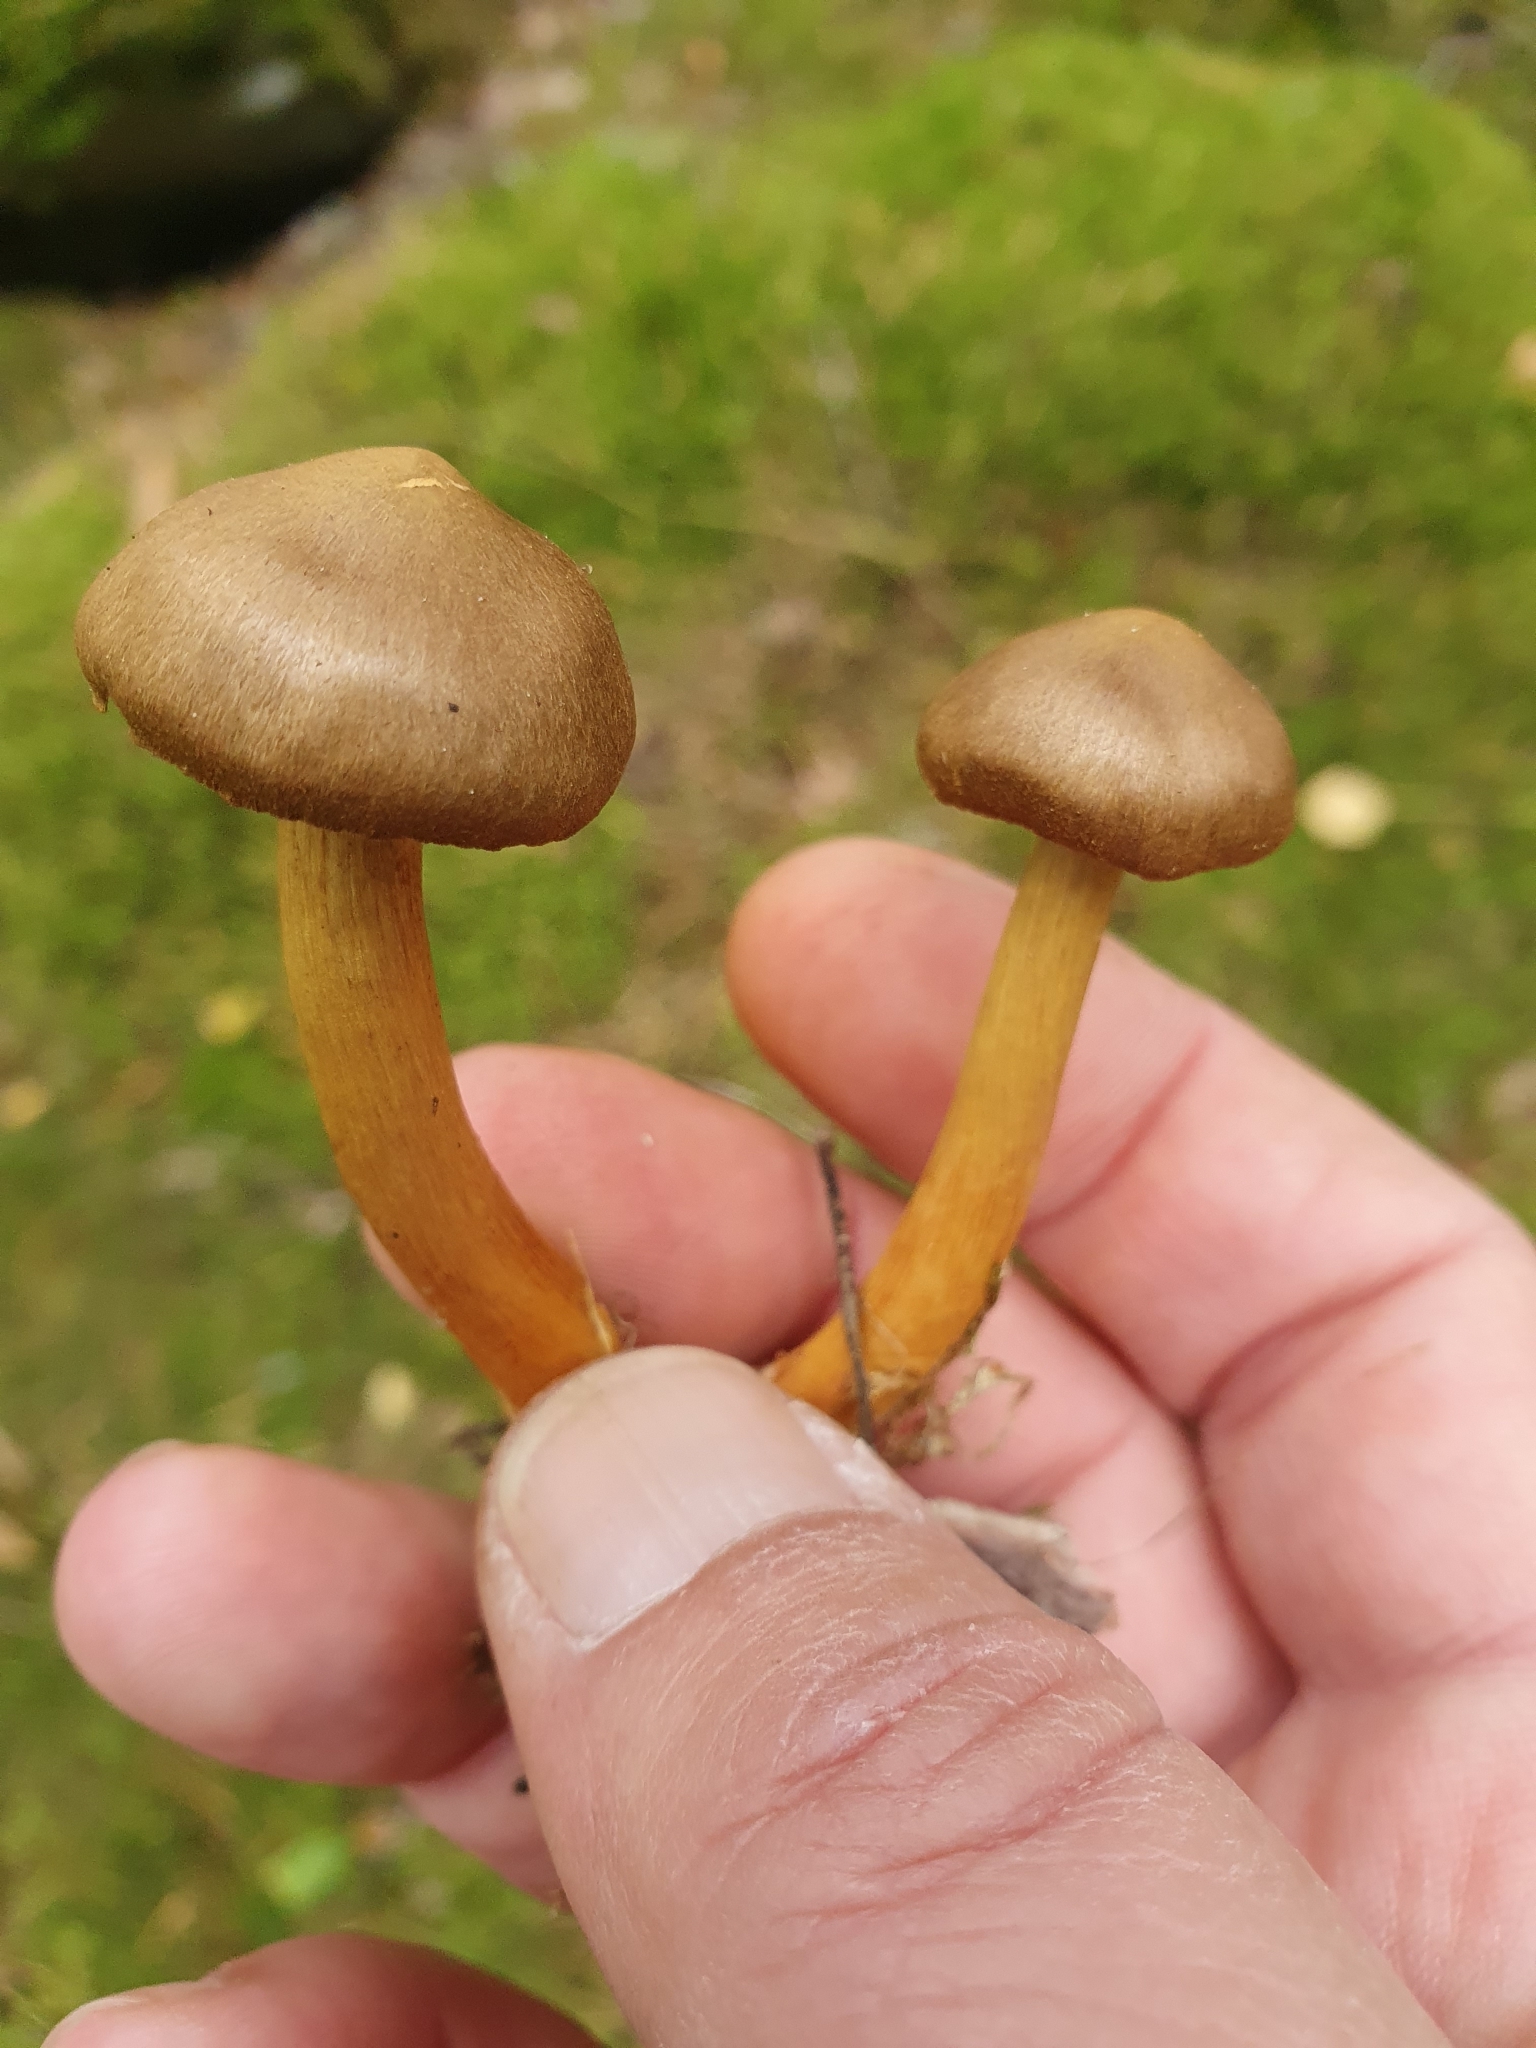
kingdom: Fungi
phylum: Basidiomycota
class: Agaricomycetes
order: Agaricales
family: Cortinariaceae
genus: Cortinarius
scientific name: Cortinarius semisanguineus
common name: Surprise webcap
